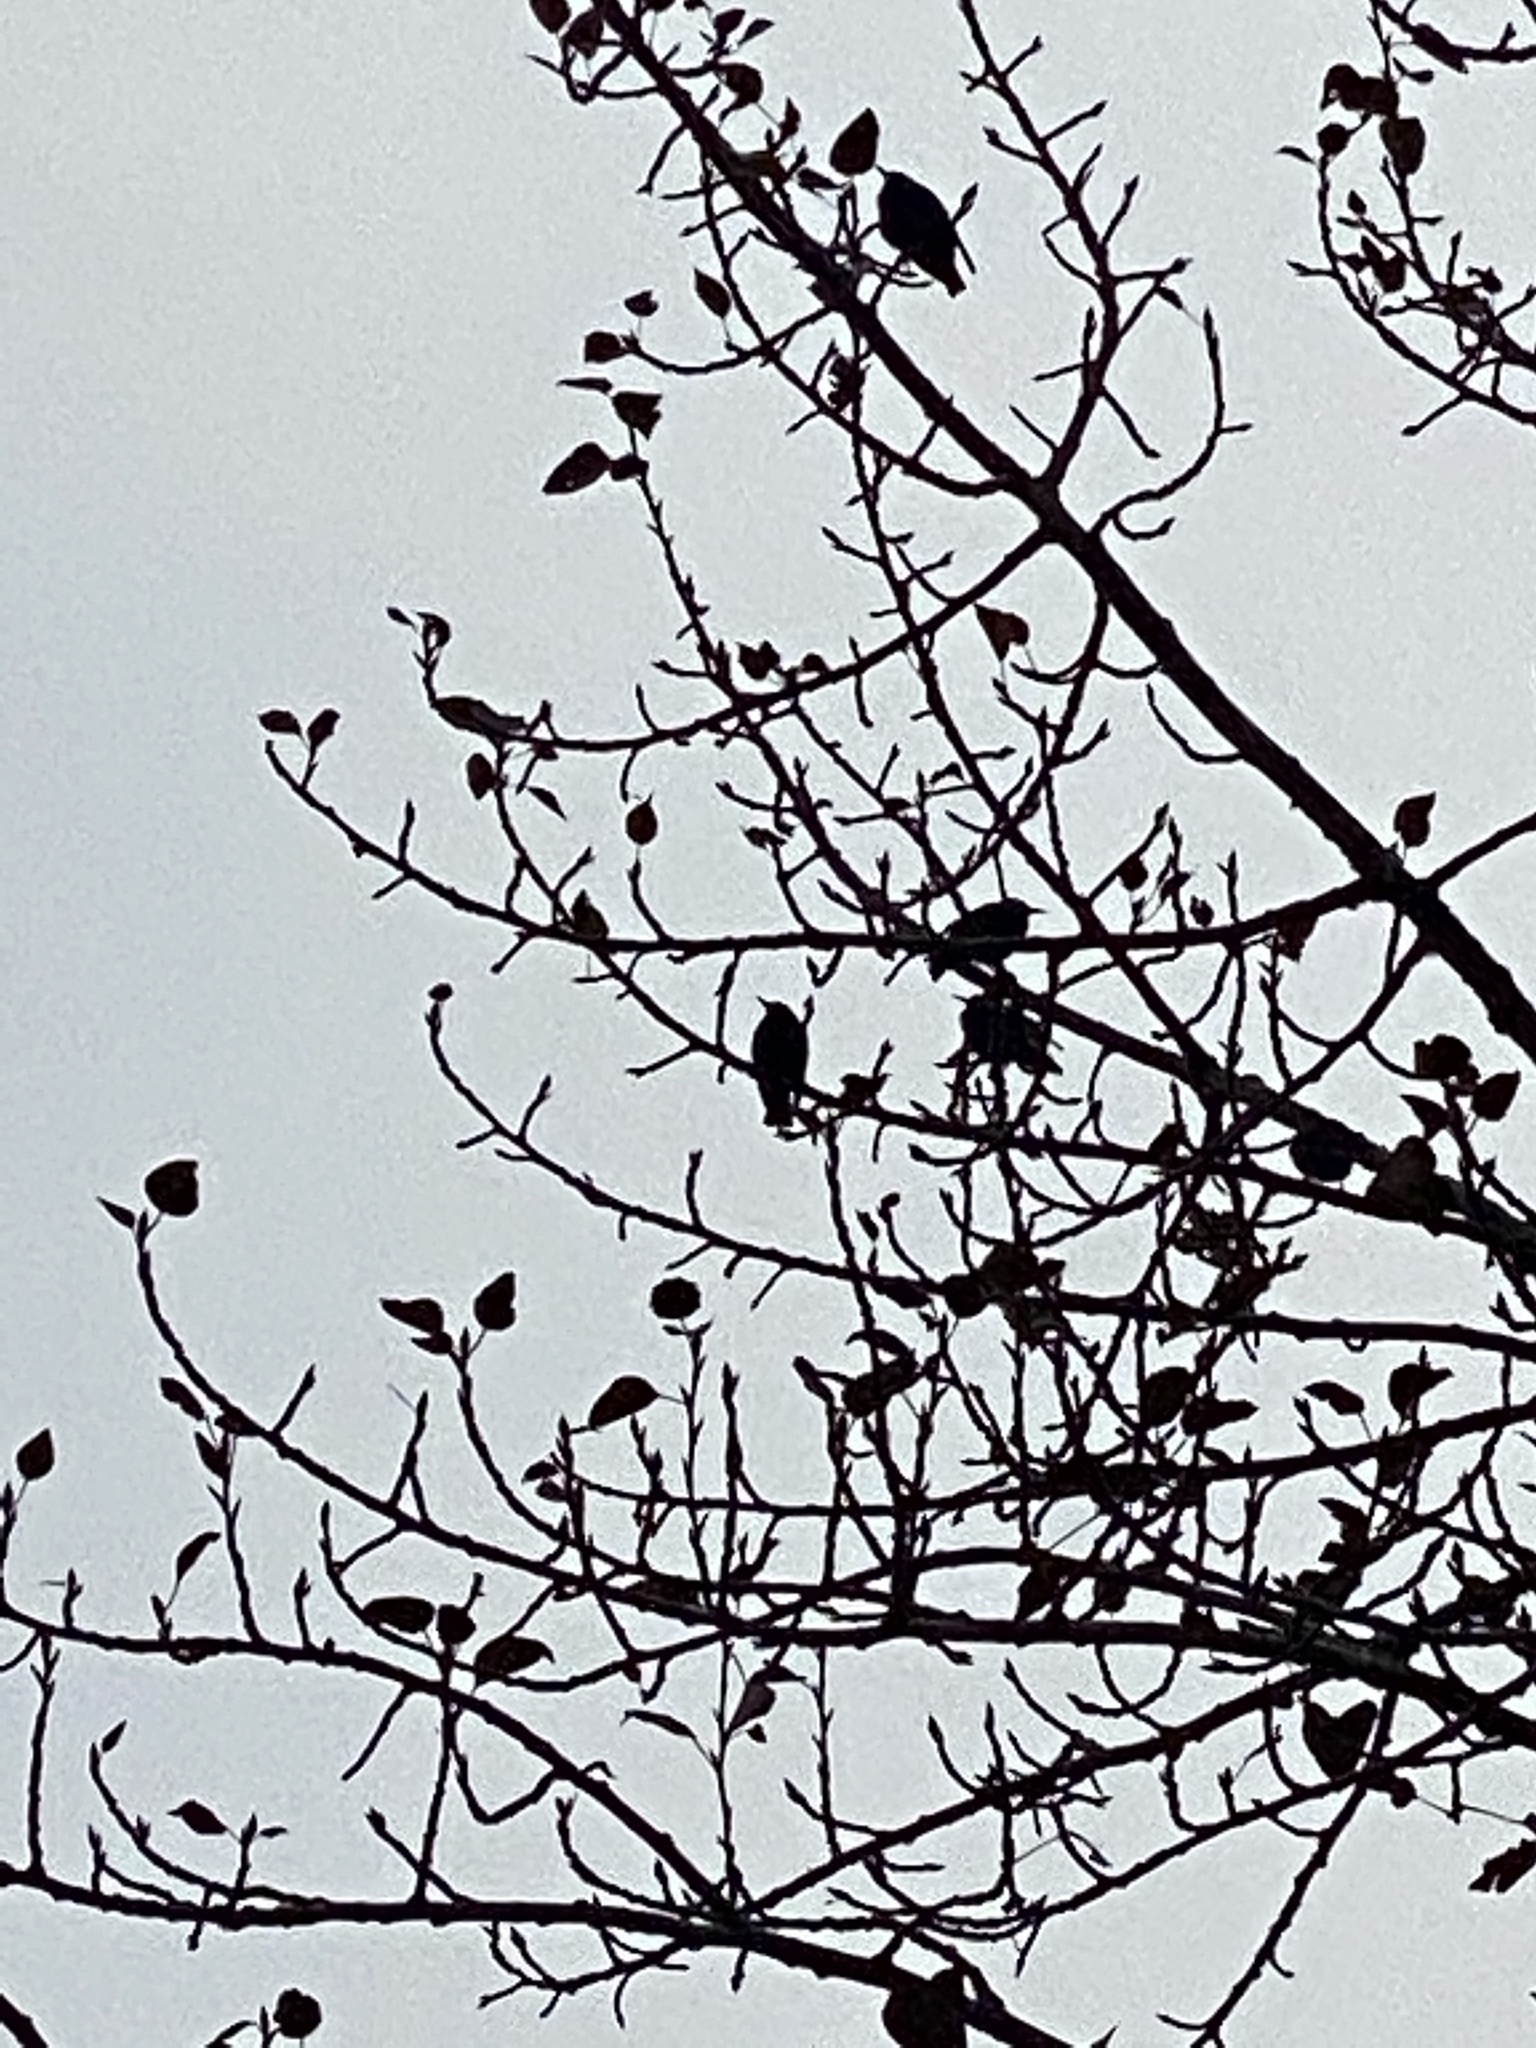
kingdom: Animalia
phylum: Chordata
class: Aves
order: Passeriformes
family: Sturnidae
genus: Sturnus
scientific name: Sturnus vulgaris
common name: Common starling
